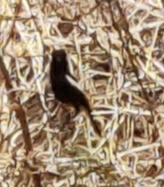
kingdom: Animalia
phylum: Chordata
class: Aves
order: Passeriformes
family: Muscicapidae
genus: Saxicola
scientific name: Saxicola caprata
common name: Pied bush chat
